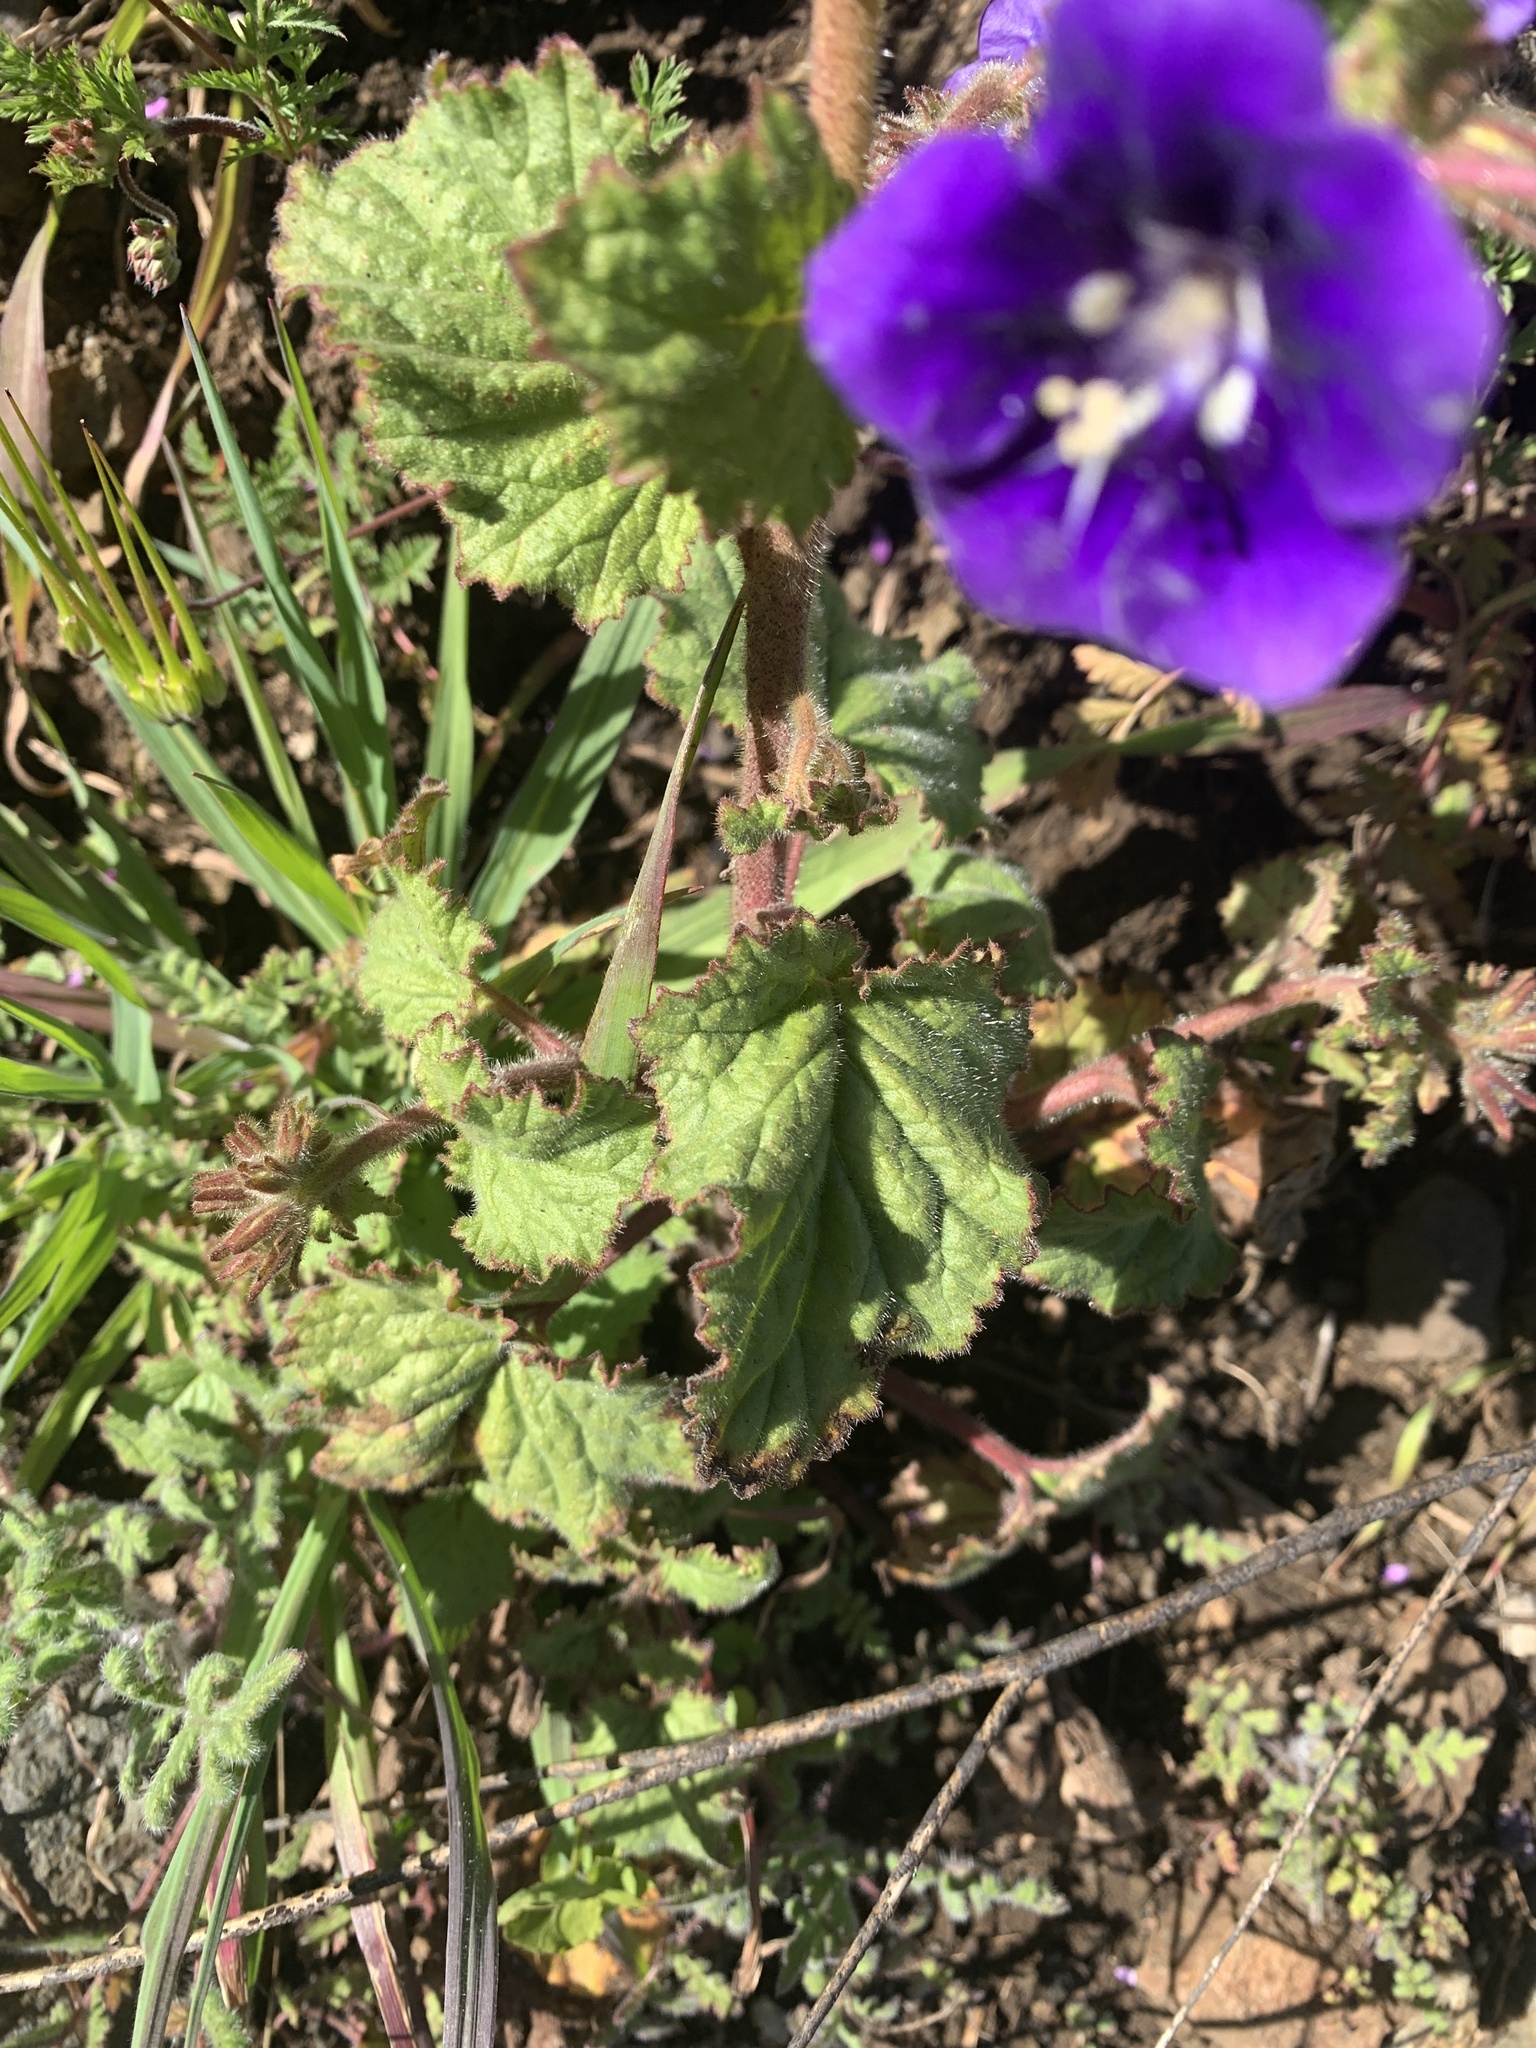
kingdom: Plantae
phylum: Tracheophyta
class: Magnoliopsida
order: Boraginales
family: Hydrophyllaceae
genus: Phacelia
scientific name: Phacelia parryi
